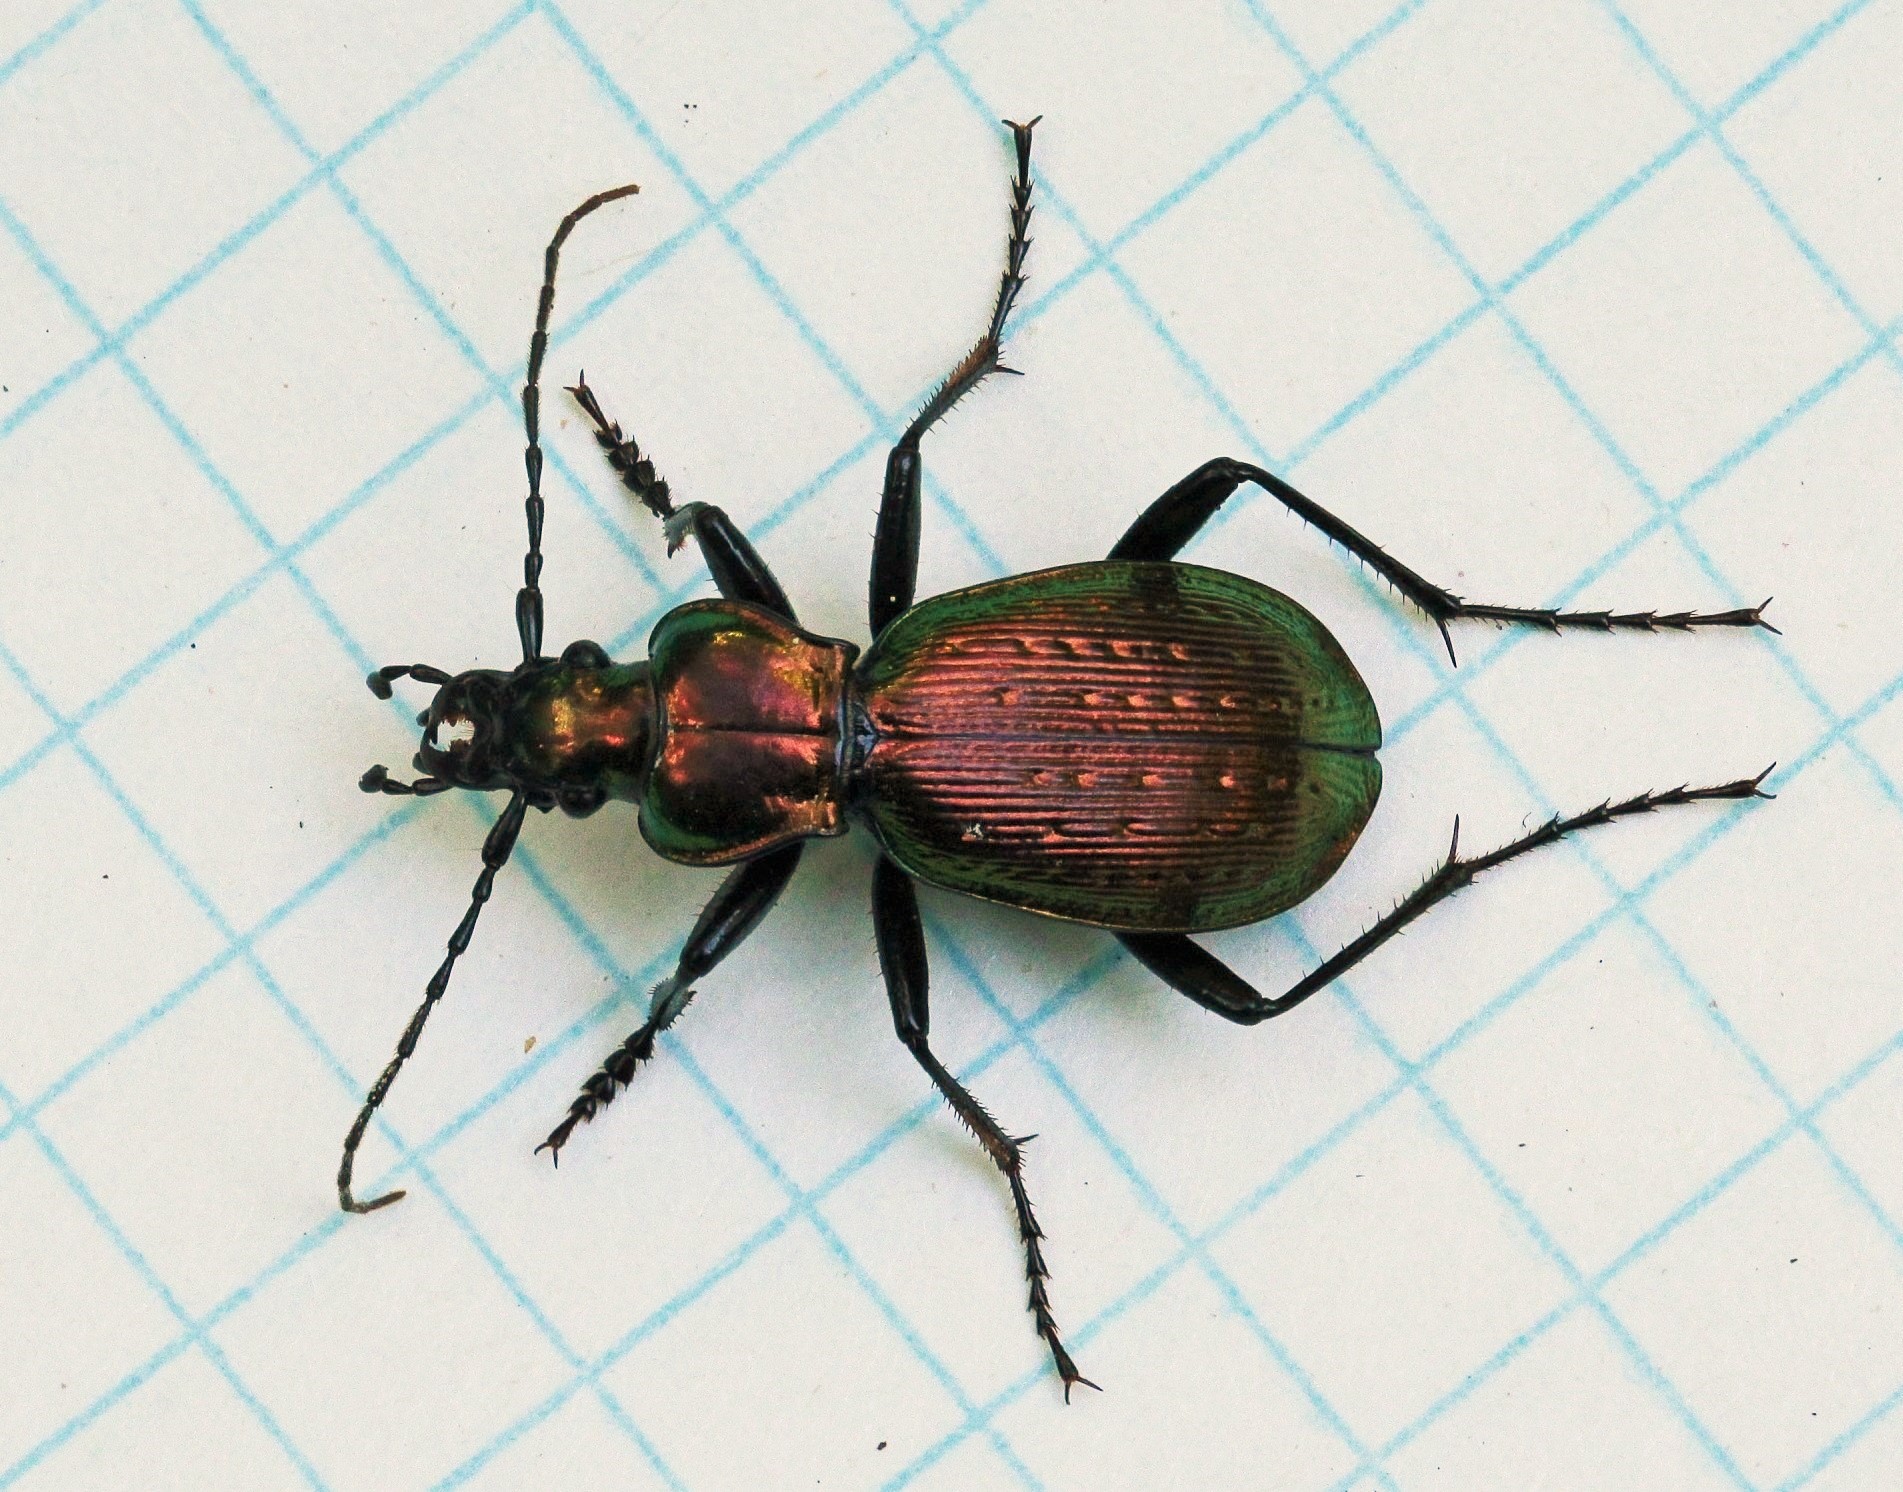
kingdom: Animalia
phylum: Arthropoda
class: Insecta
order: Coleoptera
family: Carabidae
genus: Carabus
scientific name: Carabus convallium
